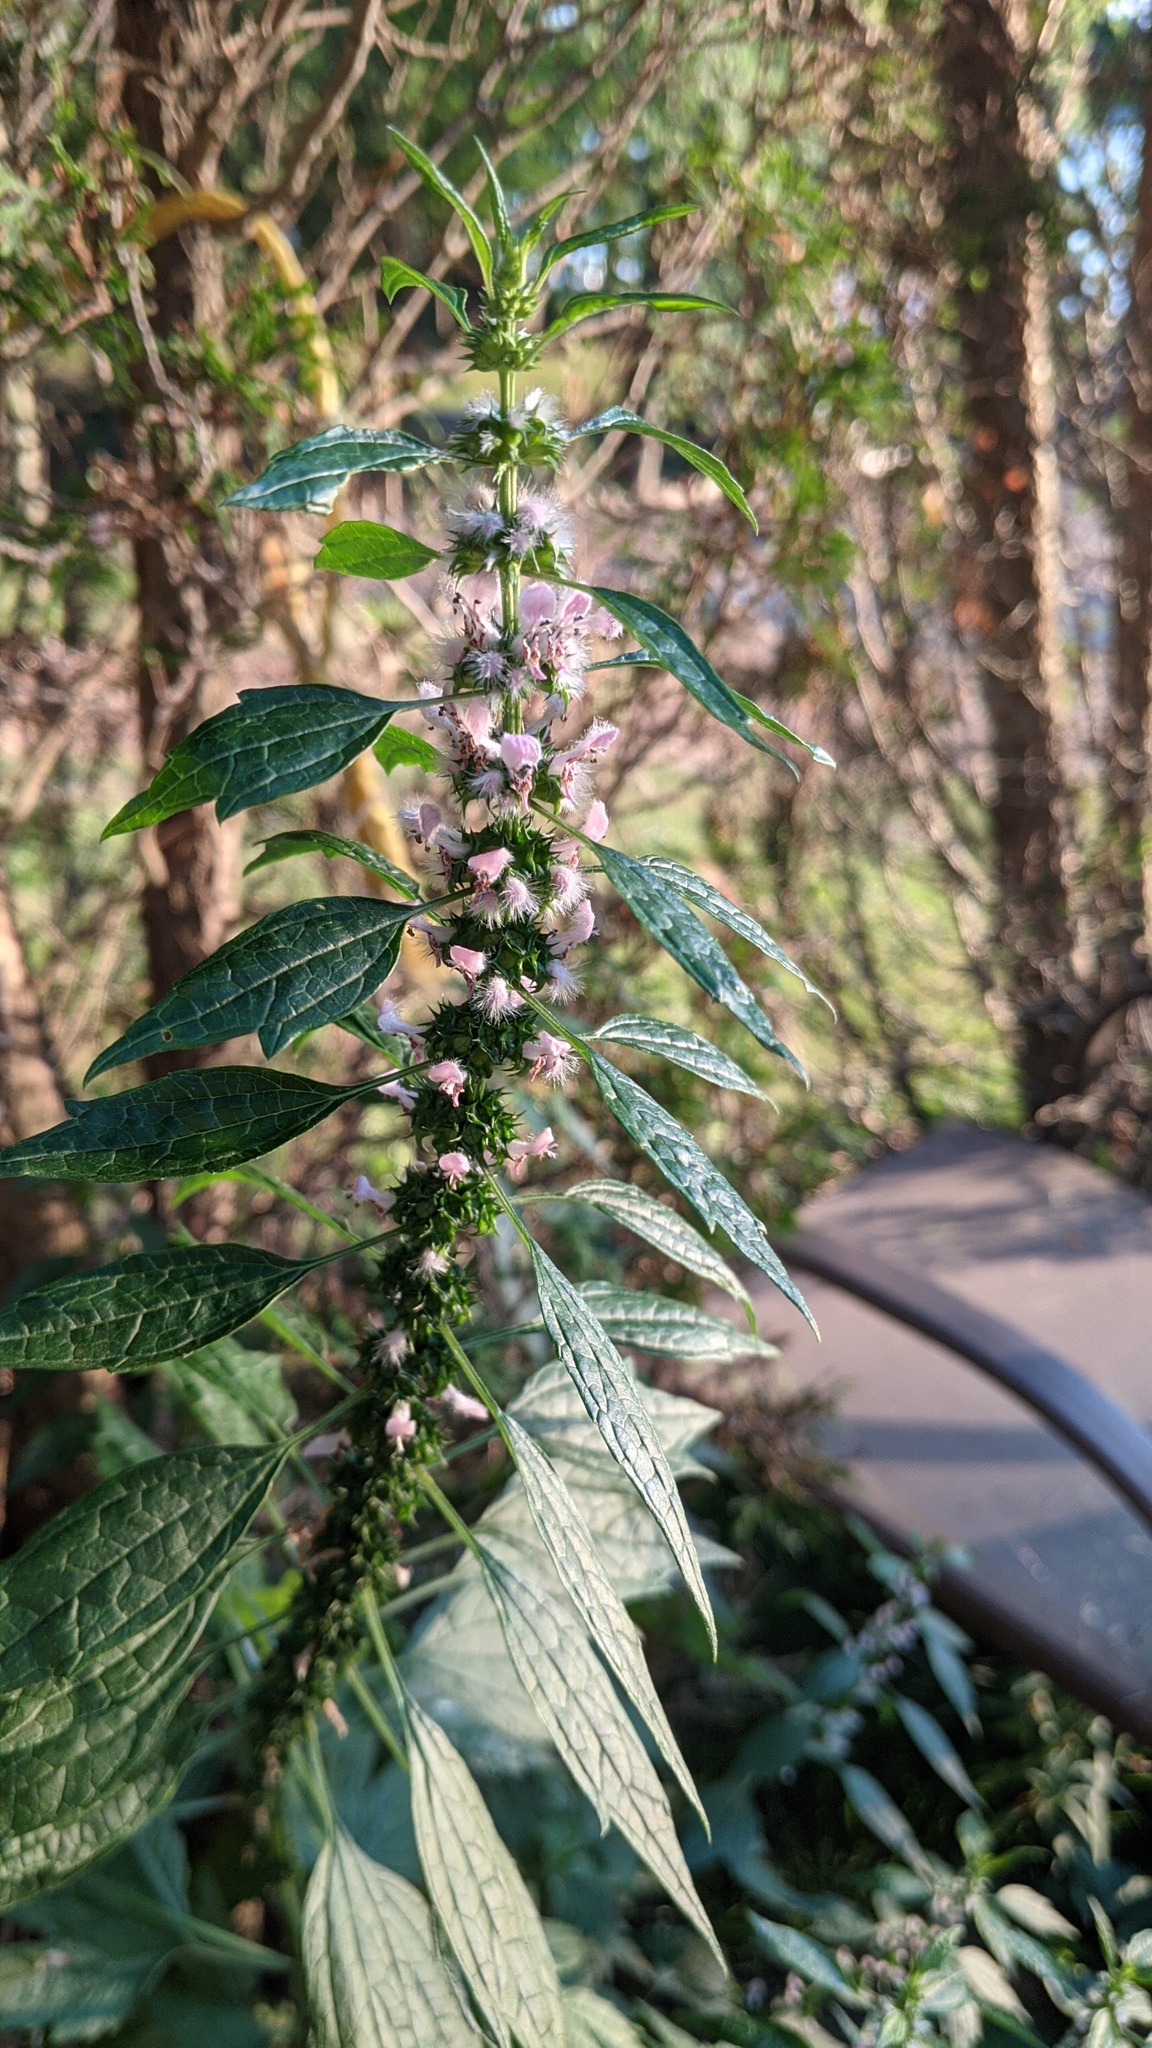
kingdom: Plantae
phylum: Tracheophyta
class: Magnoliopsida
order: Lamiales
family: Lamiaceae
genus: Leonurus
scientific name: Leonurus cardiaca
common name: Motherwort
